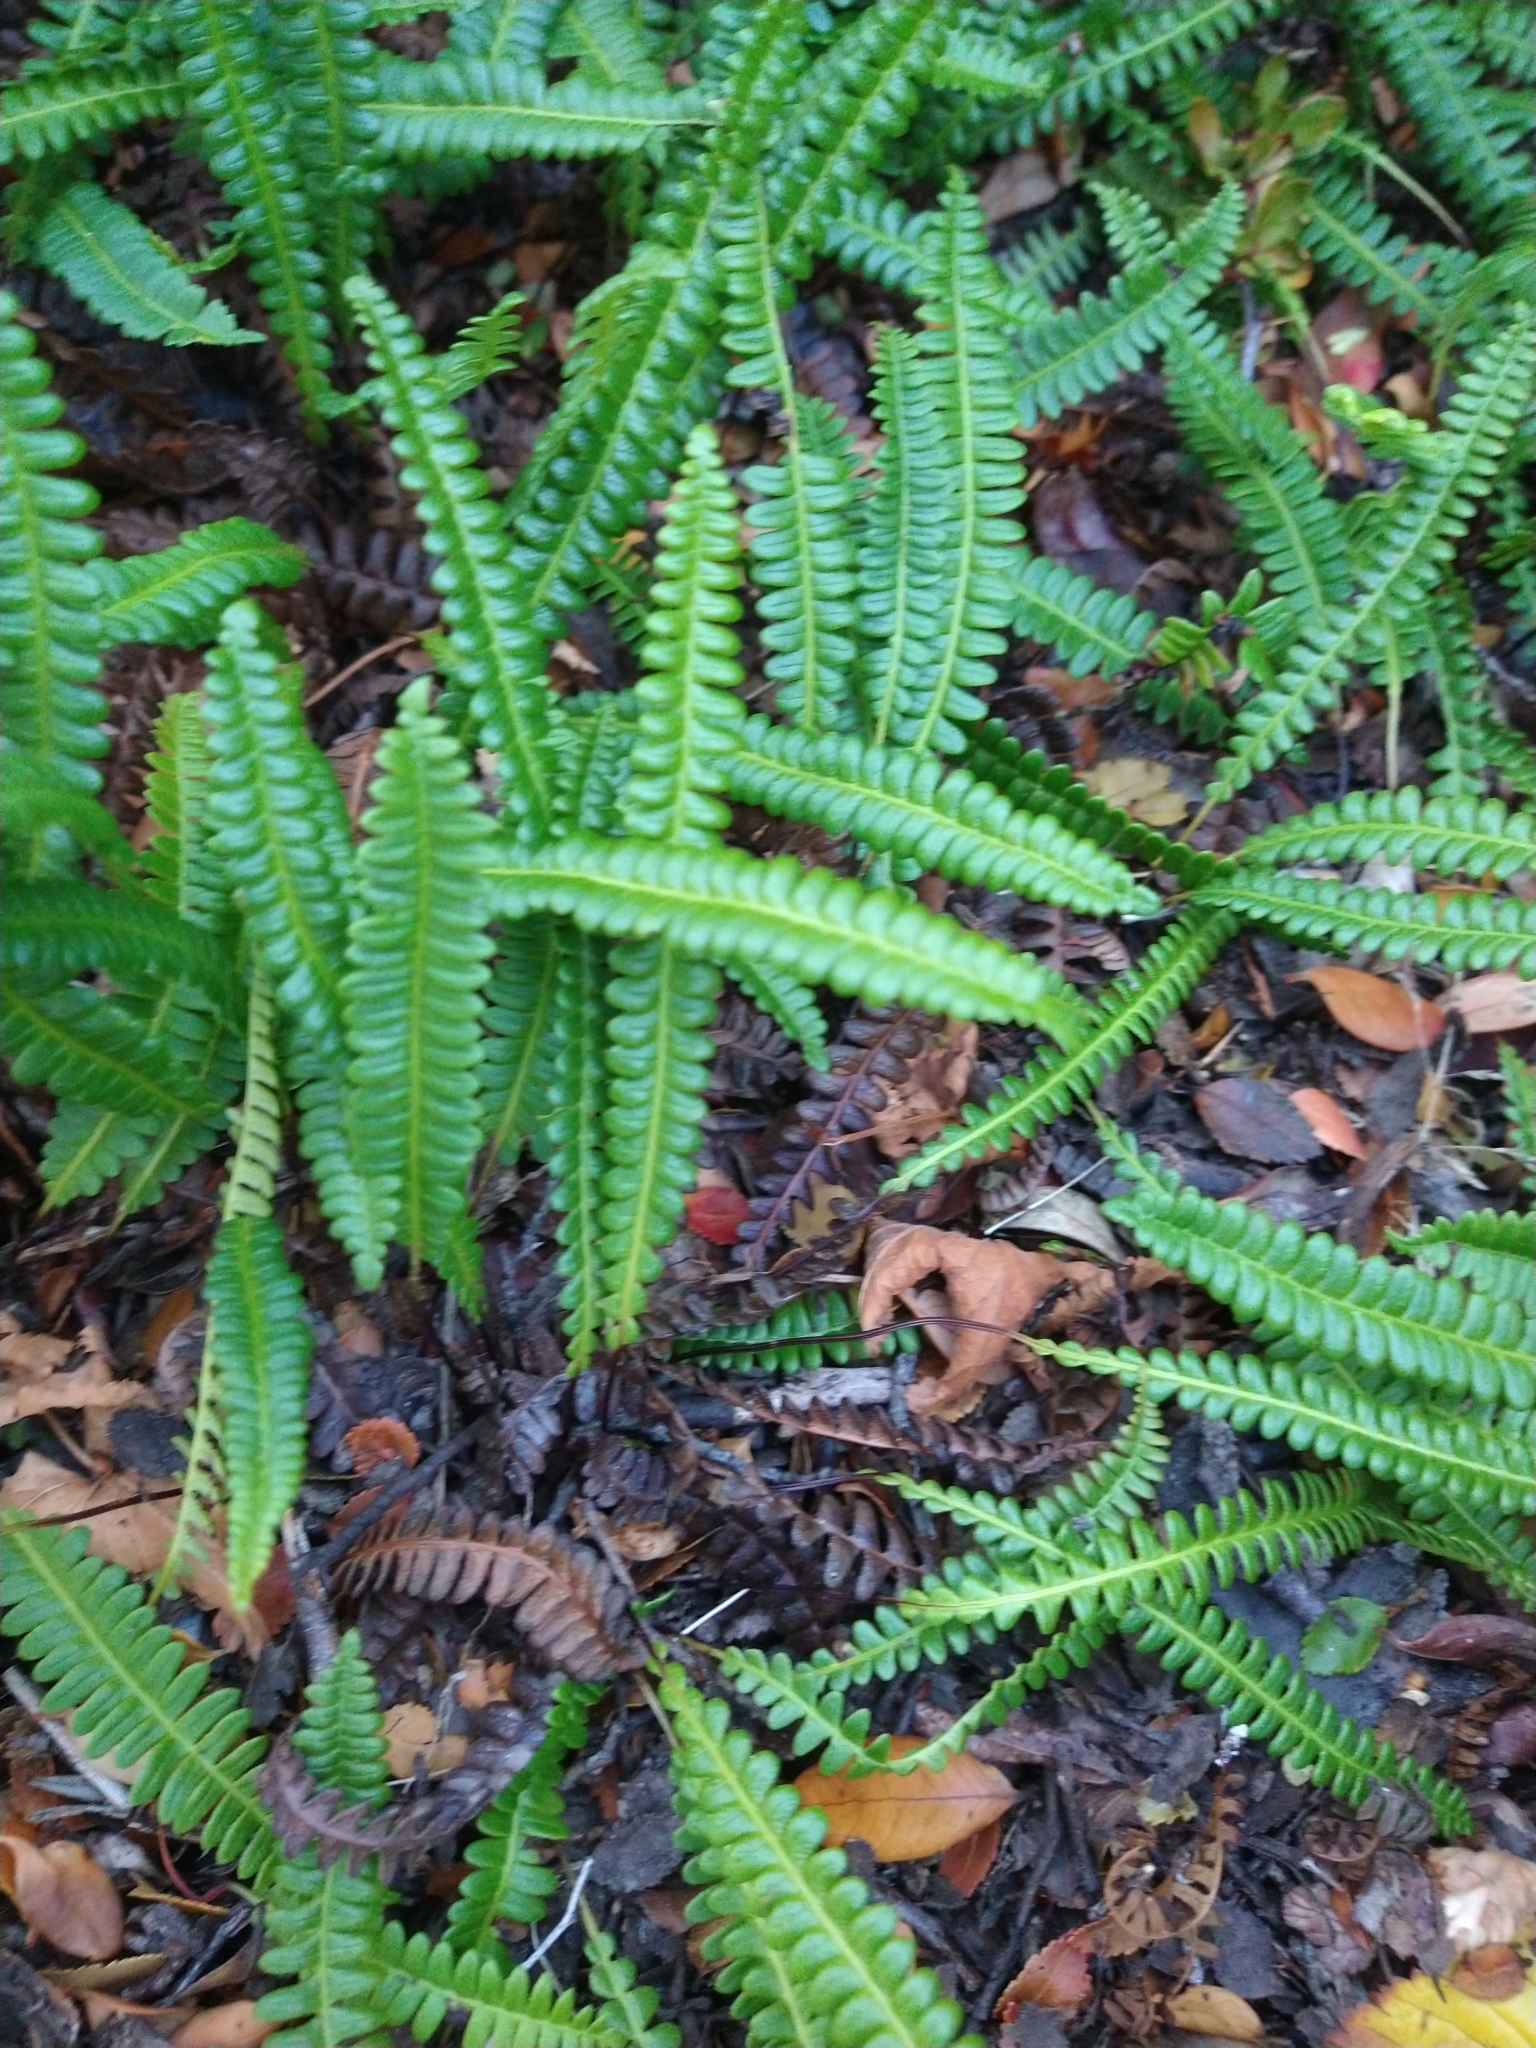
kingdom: Plantae
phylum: Tracheophyta
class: Polypodiopsida
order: Polypodiales
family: Blechnaceae
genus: Austroblechnum
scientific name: Austroblechnum penna-marina
